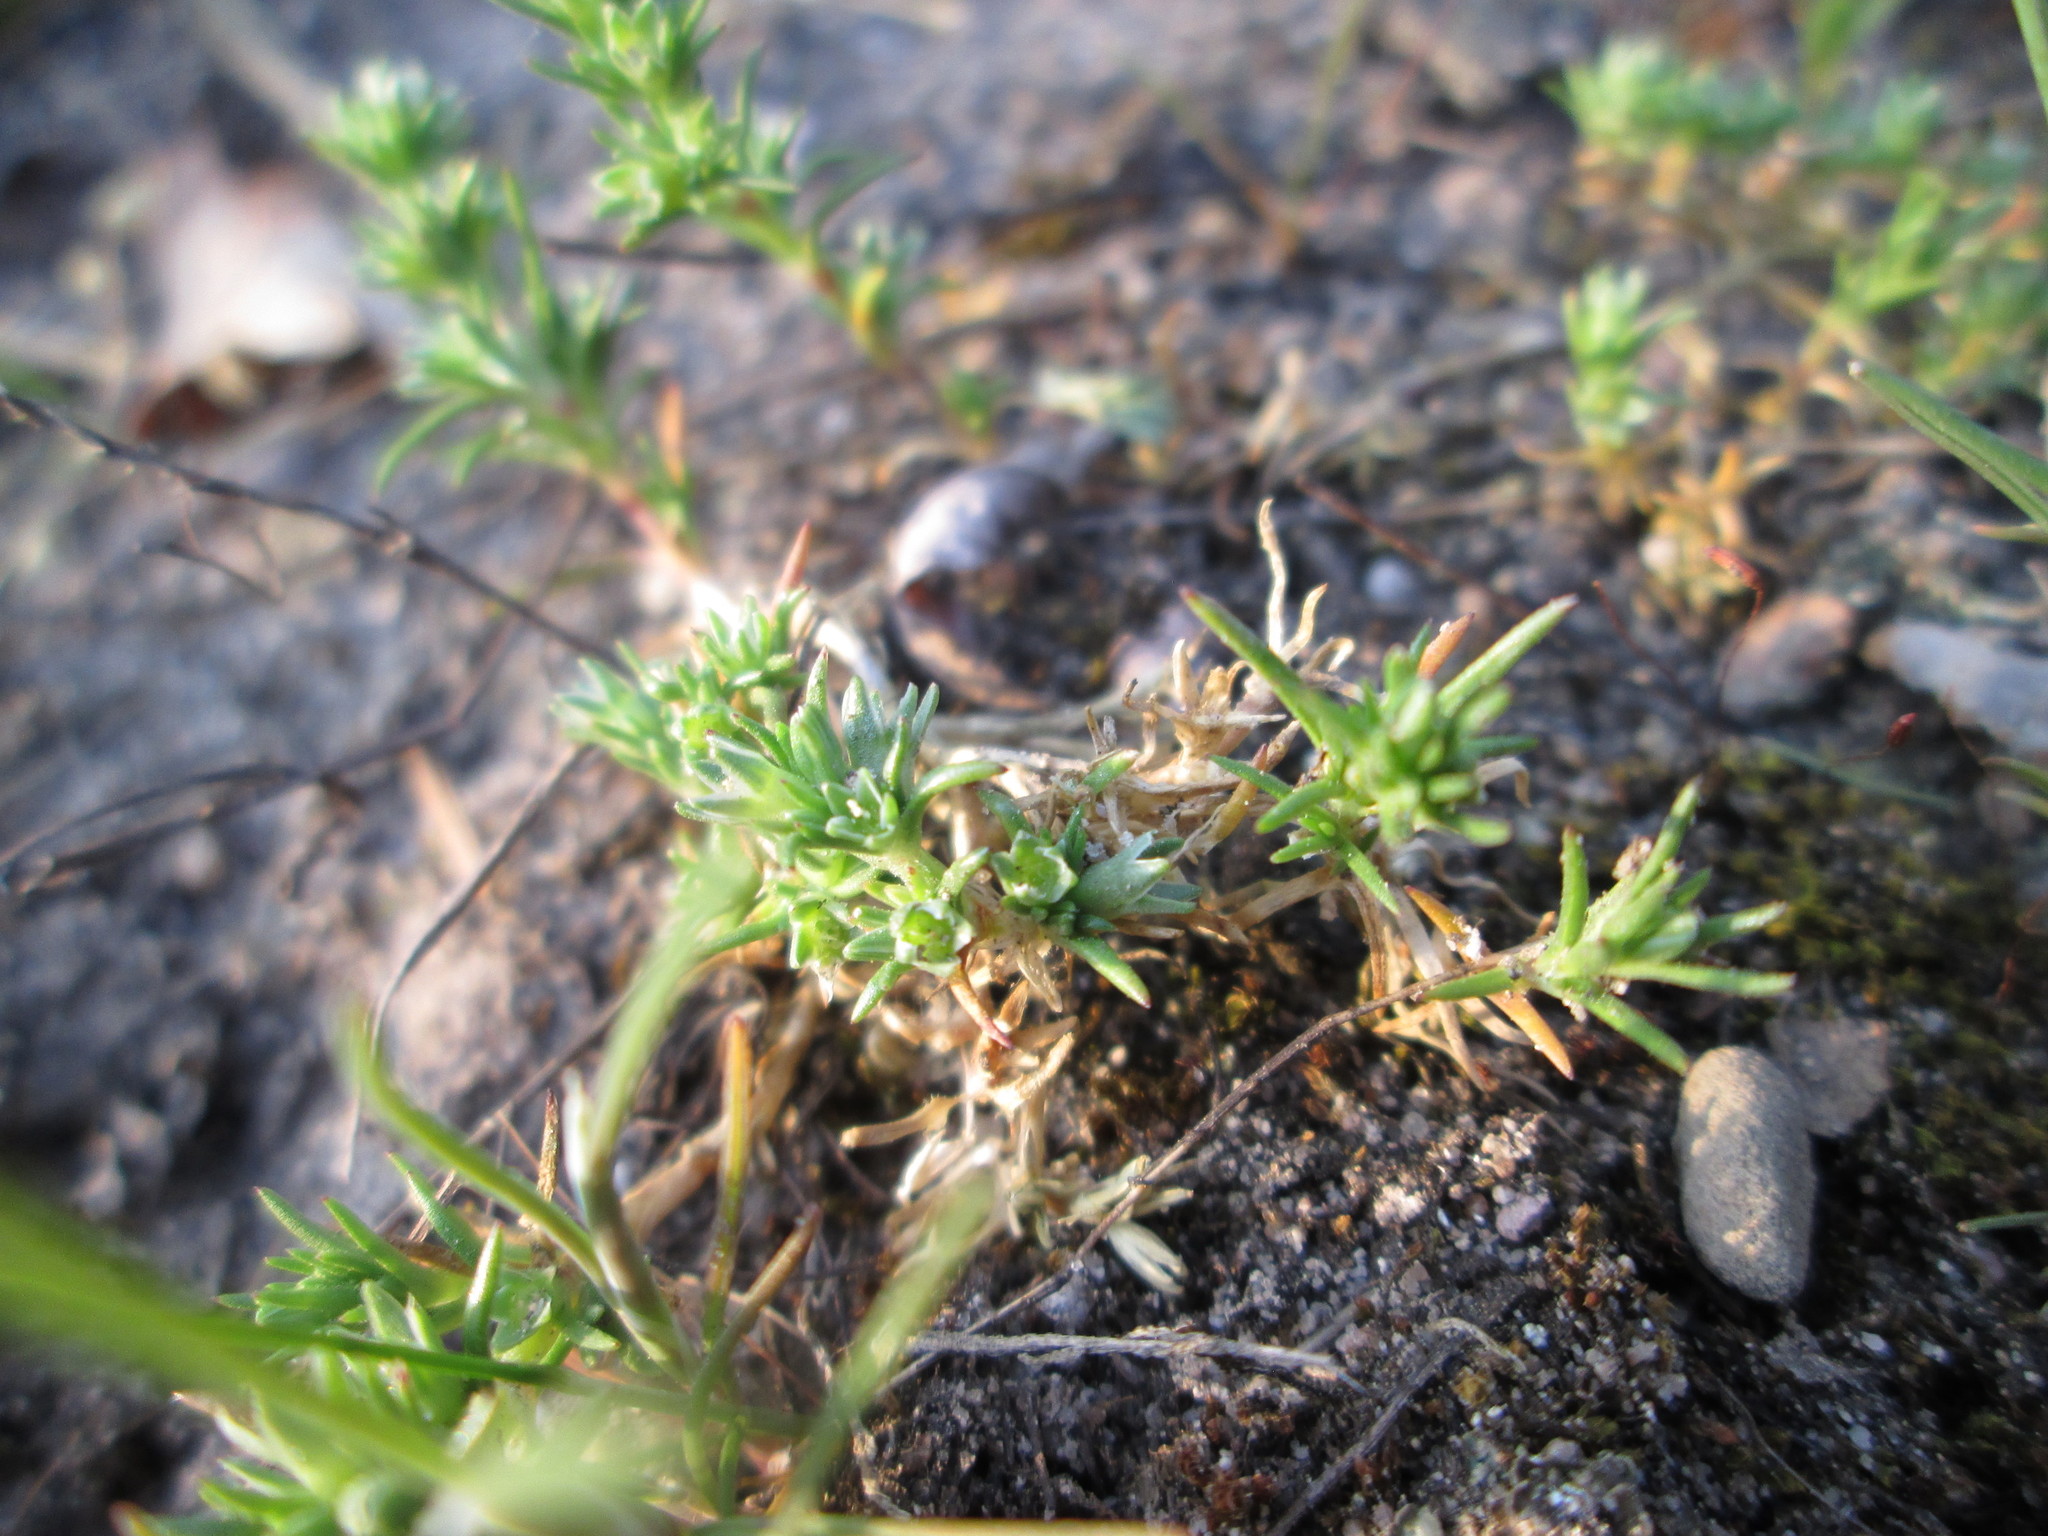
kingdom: Plantae
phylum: Tracheophyta
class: Magnoliopsida
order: Caryophyllales
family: Caryophyllaceae
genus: Scleranthus
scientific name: Scleranthus annuus
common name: Annual knawel
